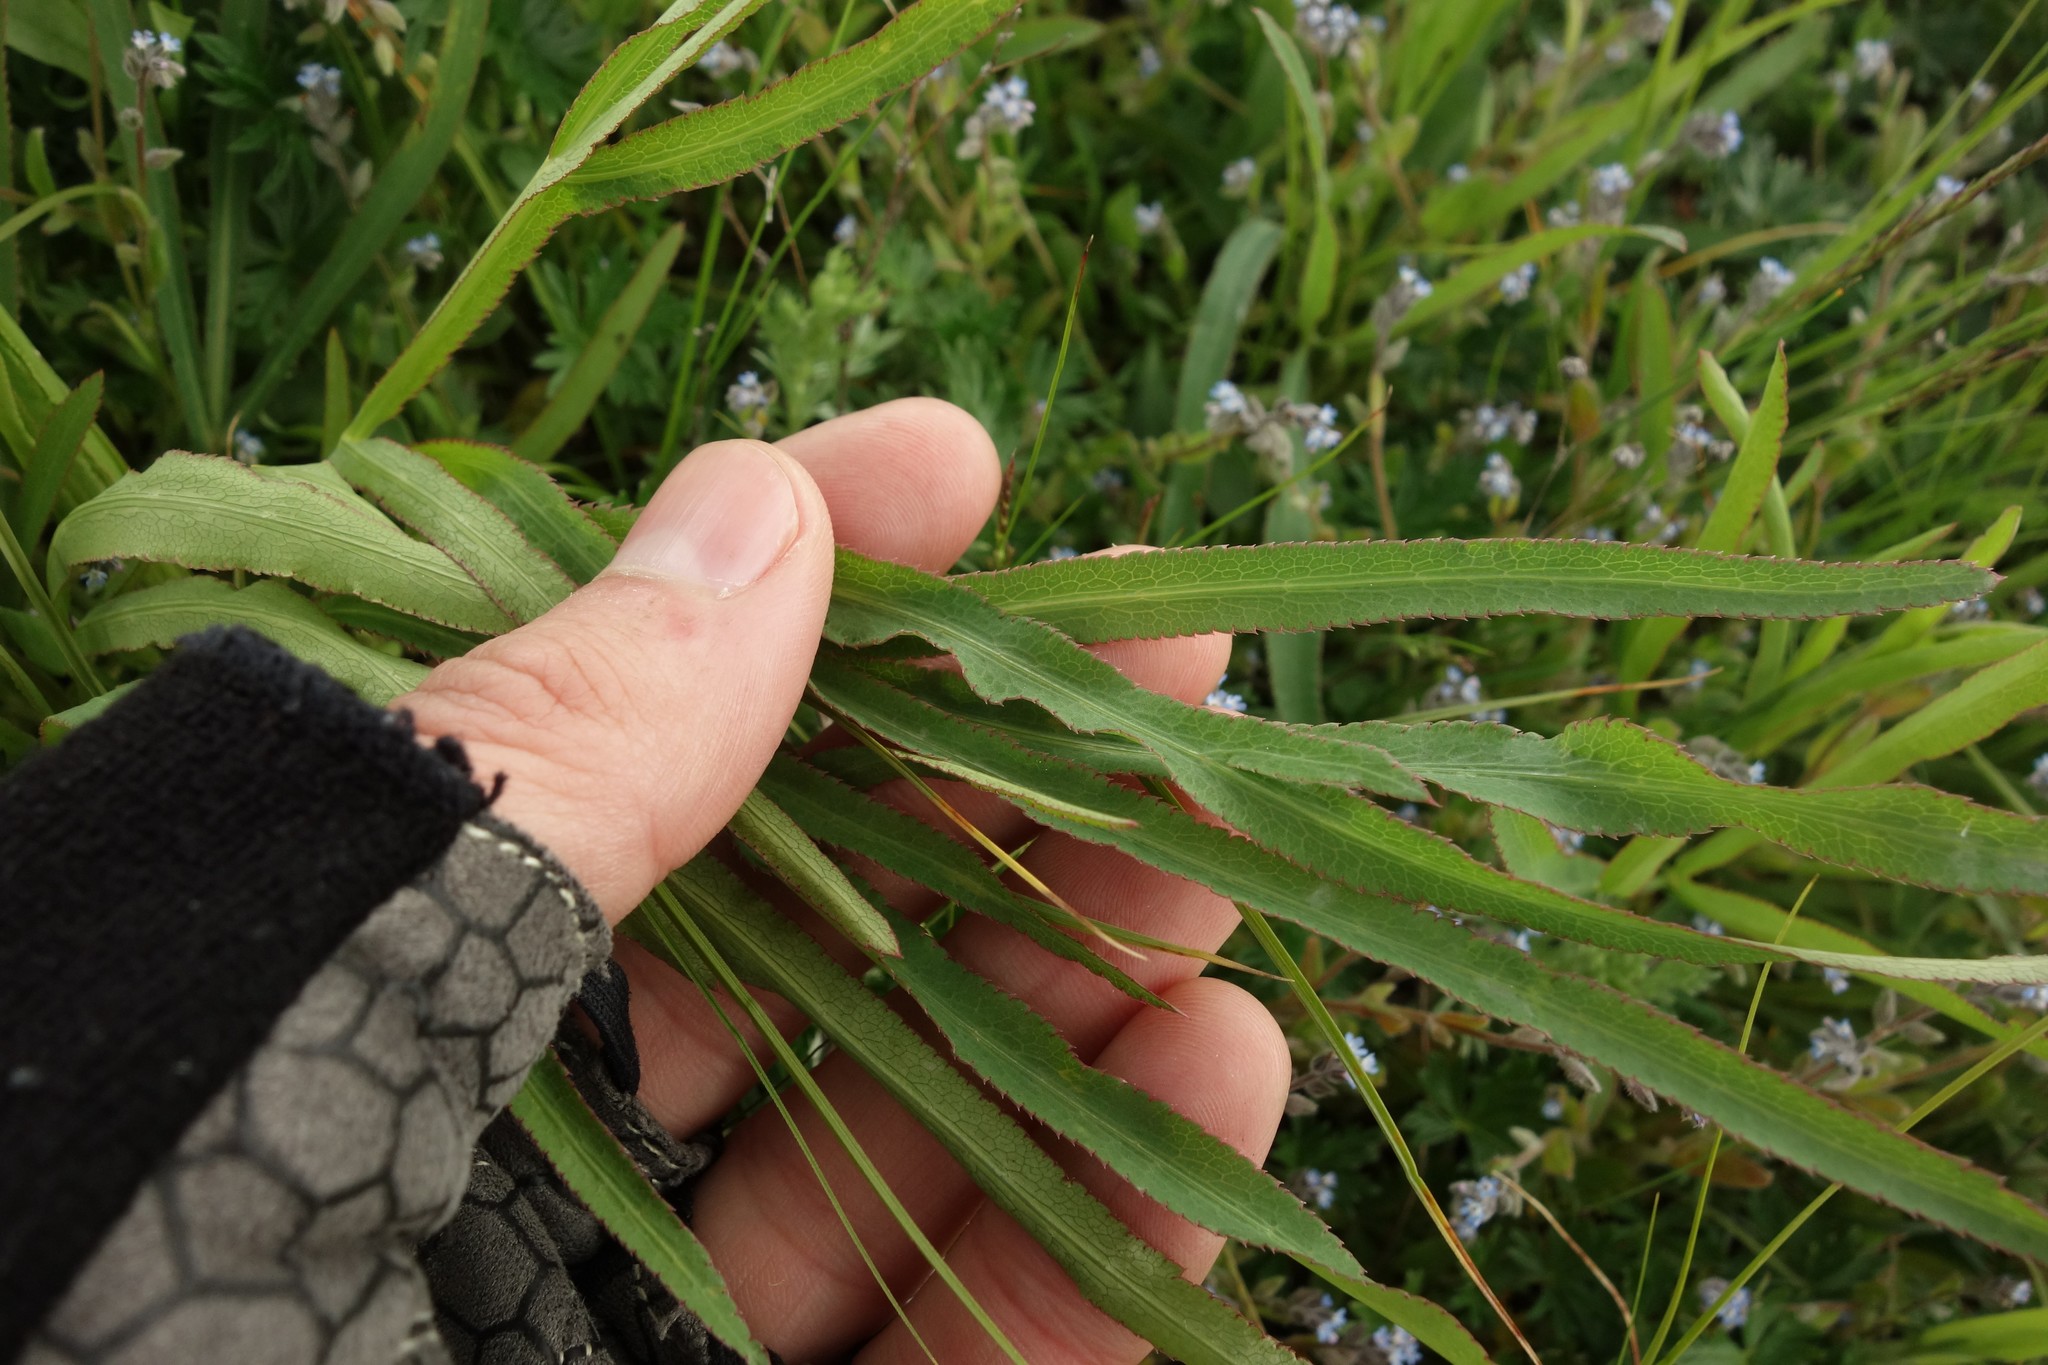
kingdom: Plantae
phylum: Tracheophyta
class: Magnoliopsida
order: Apiales
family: Apiaceae
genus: Falcaria
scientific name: Falcaria vulgaris
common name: Longleaf
